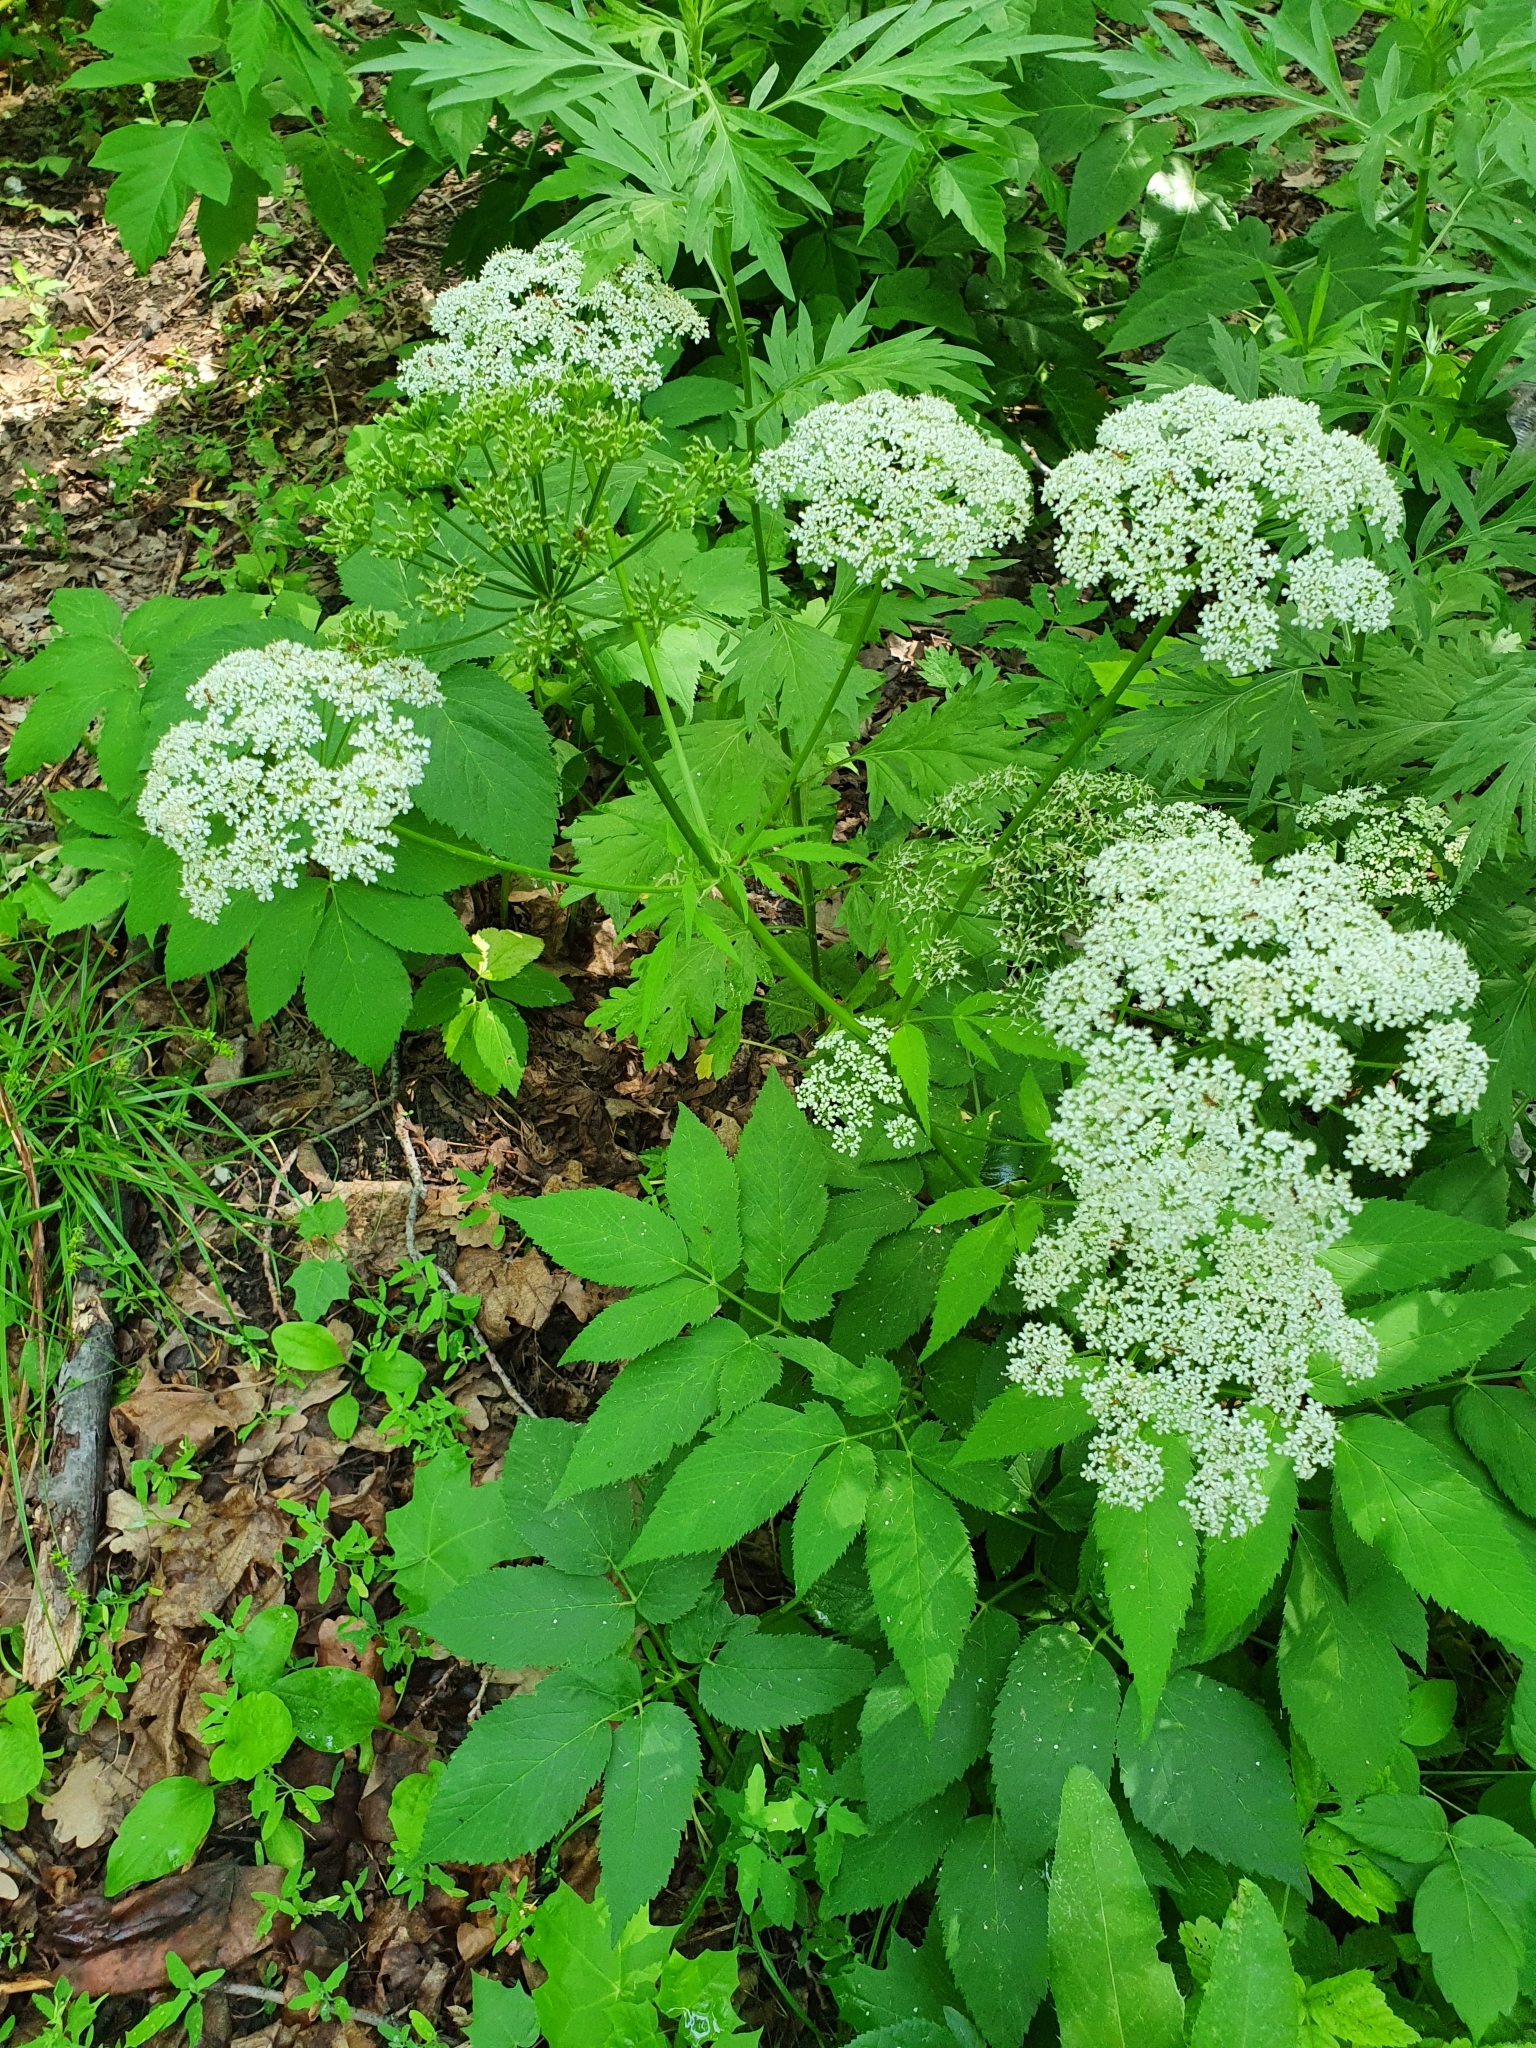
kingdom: Plantae
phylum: Tracheophyta
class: Magnoliopsida
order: Apiales
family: Apiaceae
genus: Aegopodium
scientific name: Aegopodium podagraria
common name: Ground-elder
